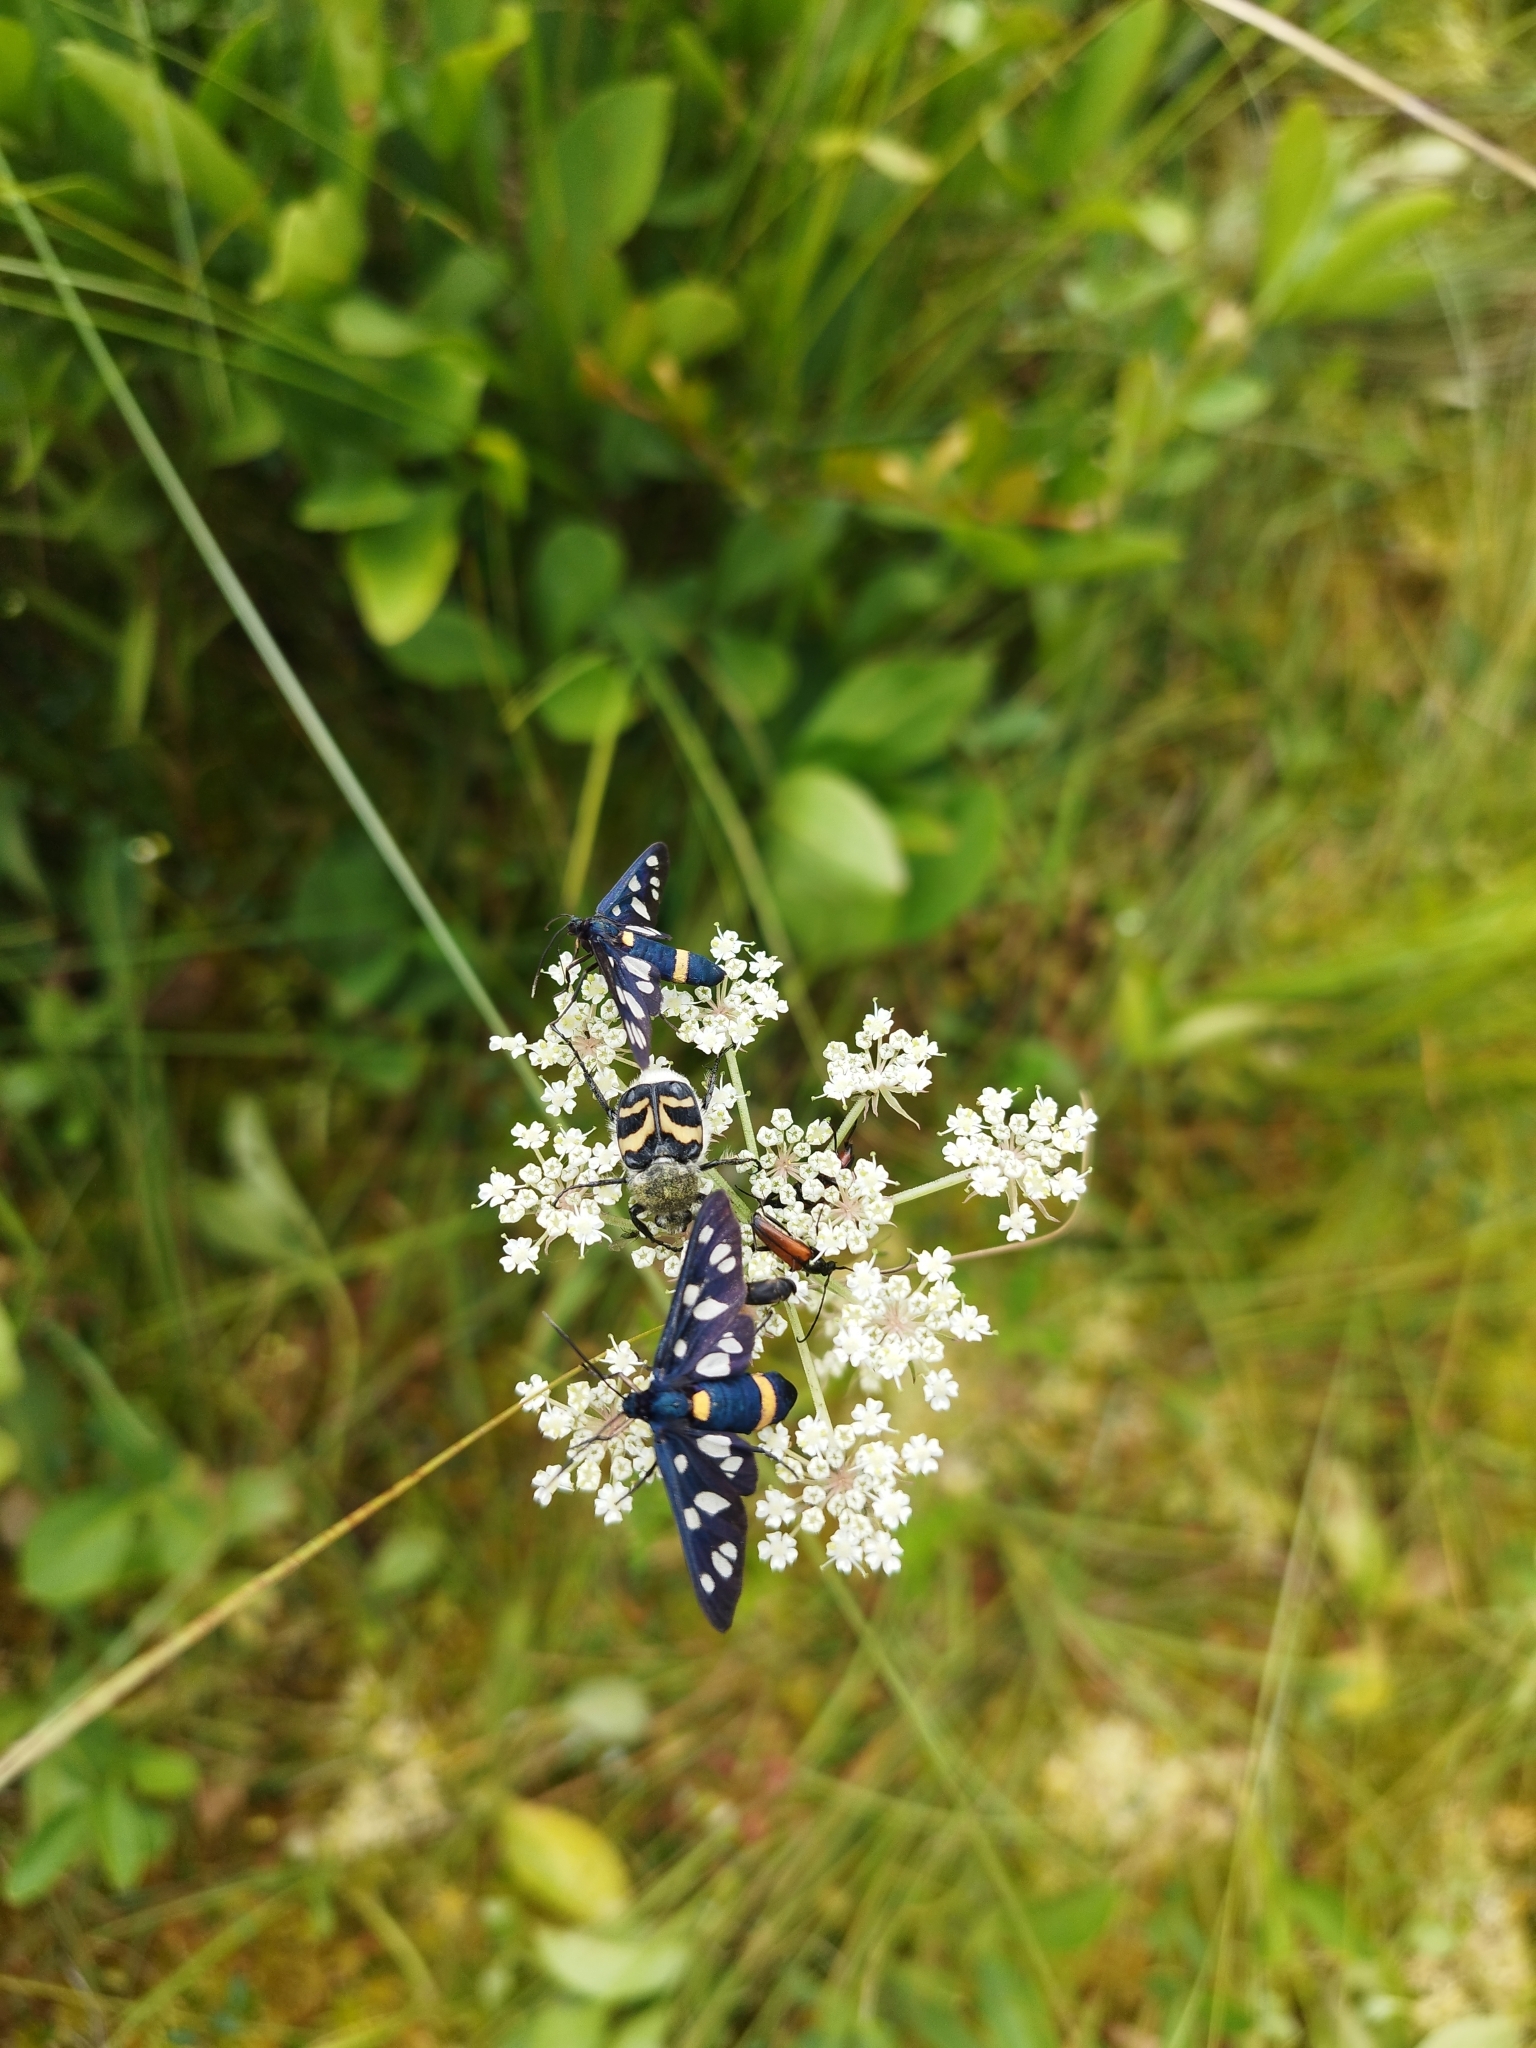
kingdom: Animalia
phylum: Arthropoda
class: Insecta
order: Lepidoptera
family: Erebidae
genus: Amata
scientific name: Amata nigricornis
